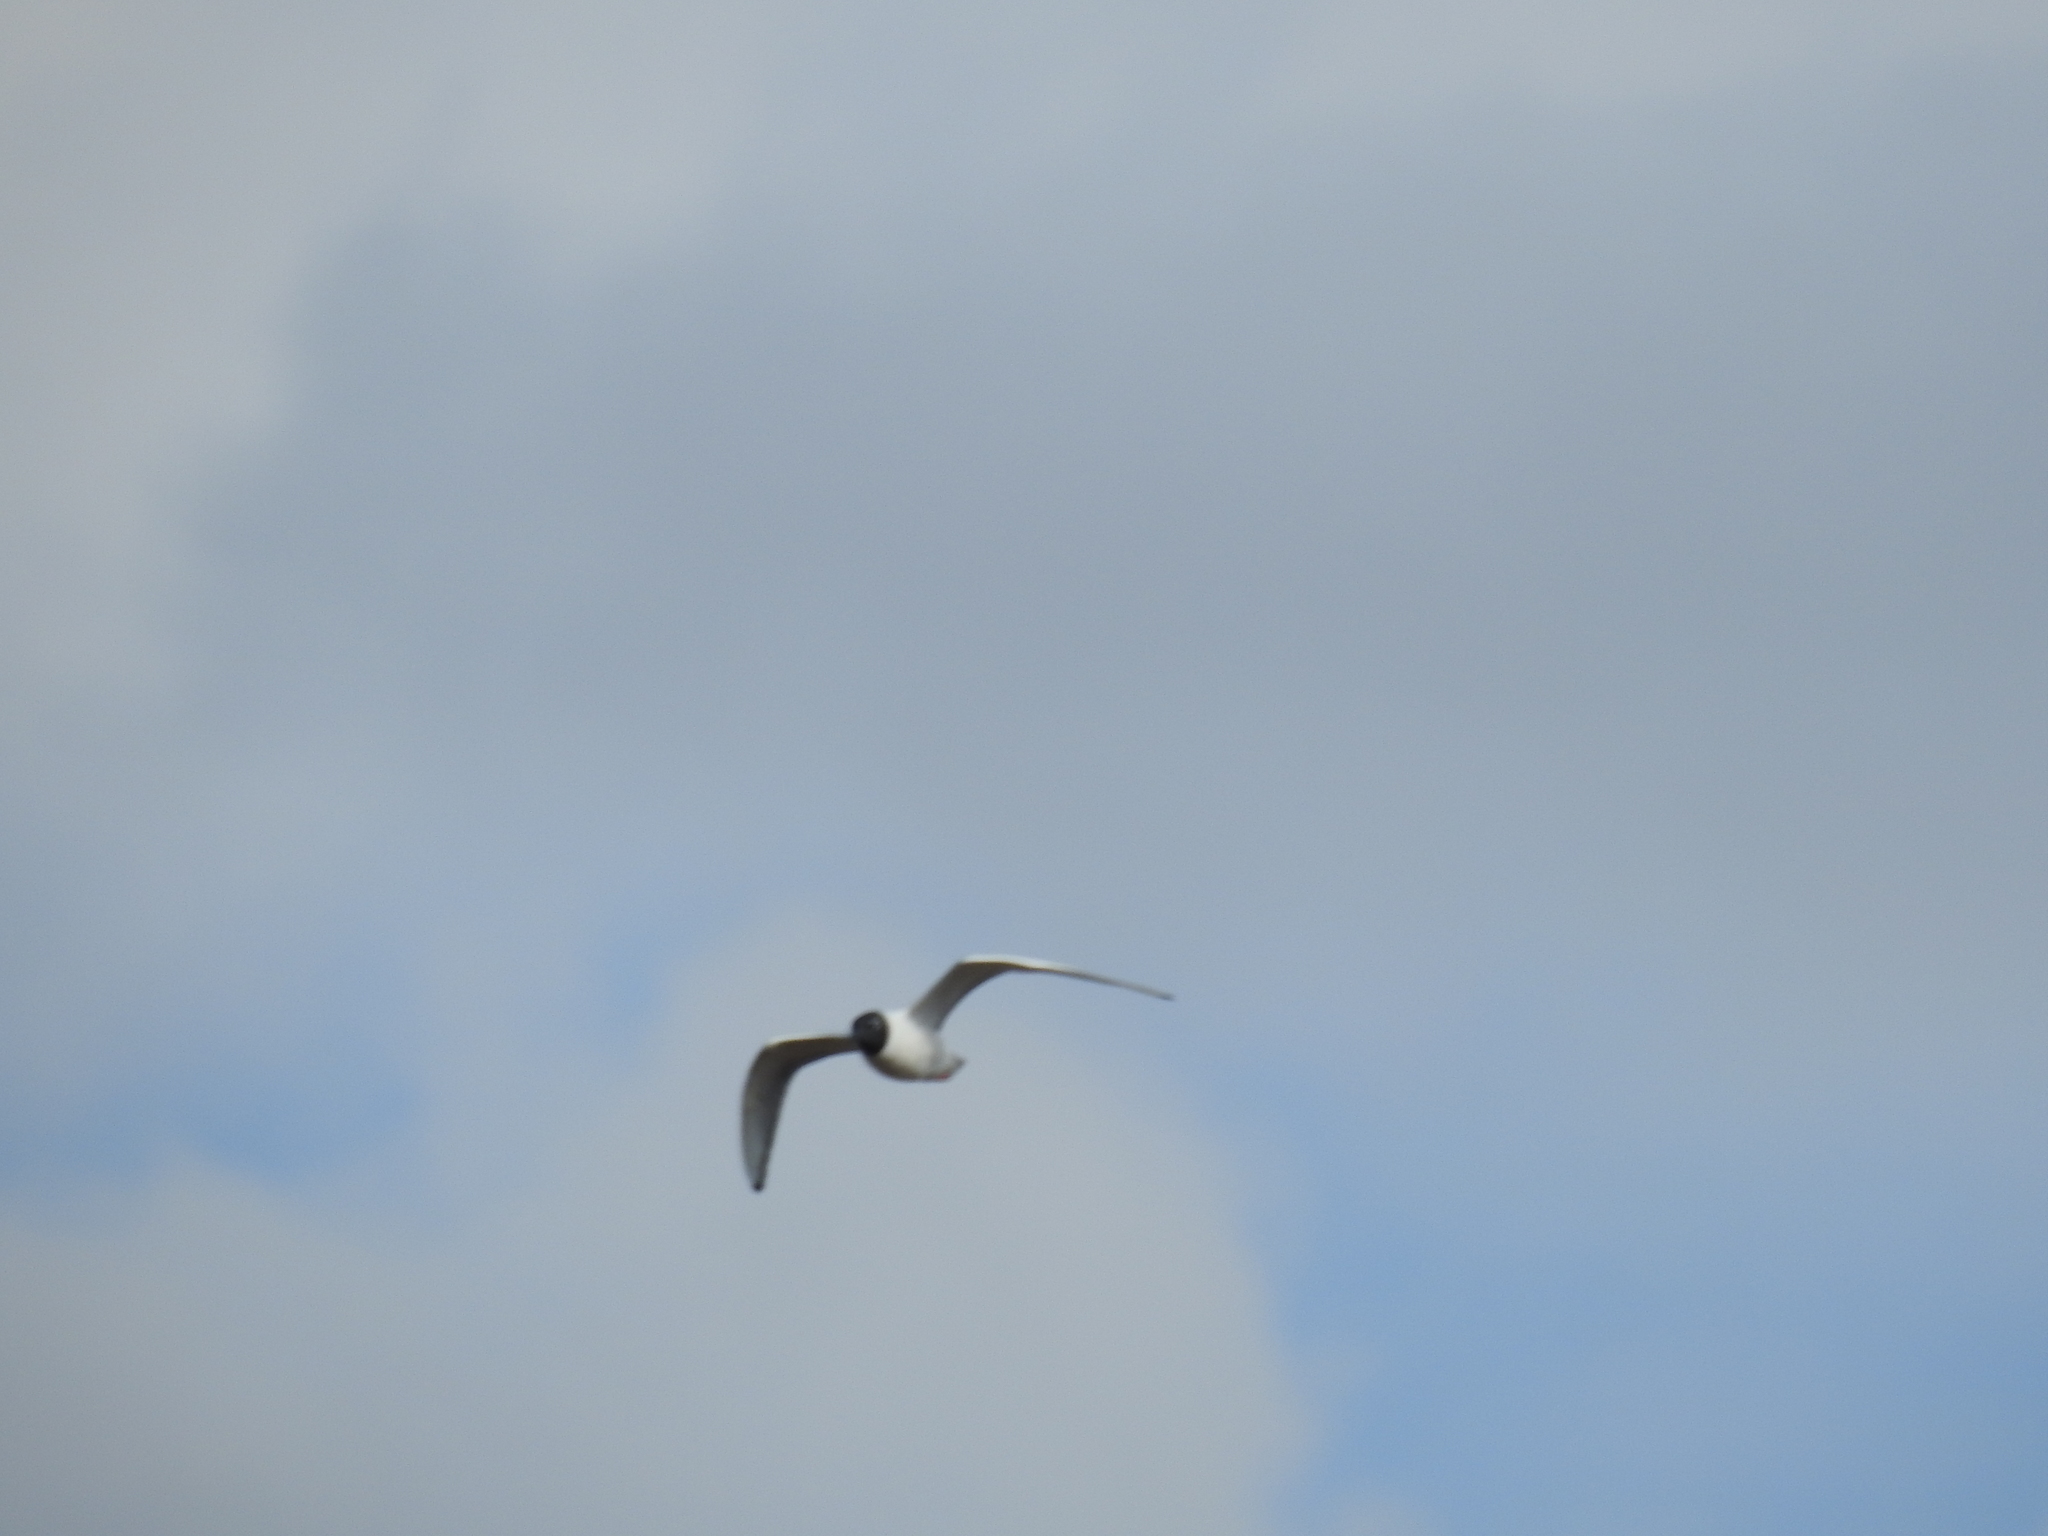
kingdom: Animalia
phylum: Chordata
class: Aves
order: Charadriiformes
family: Laridae
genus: Chroicocephalus
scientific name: Chroicocephalus philadelphia
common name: Bonaparte's gull
